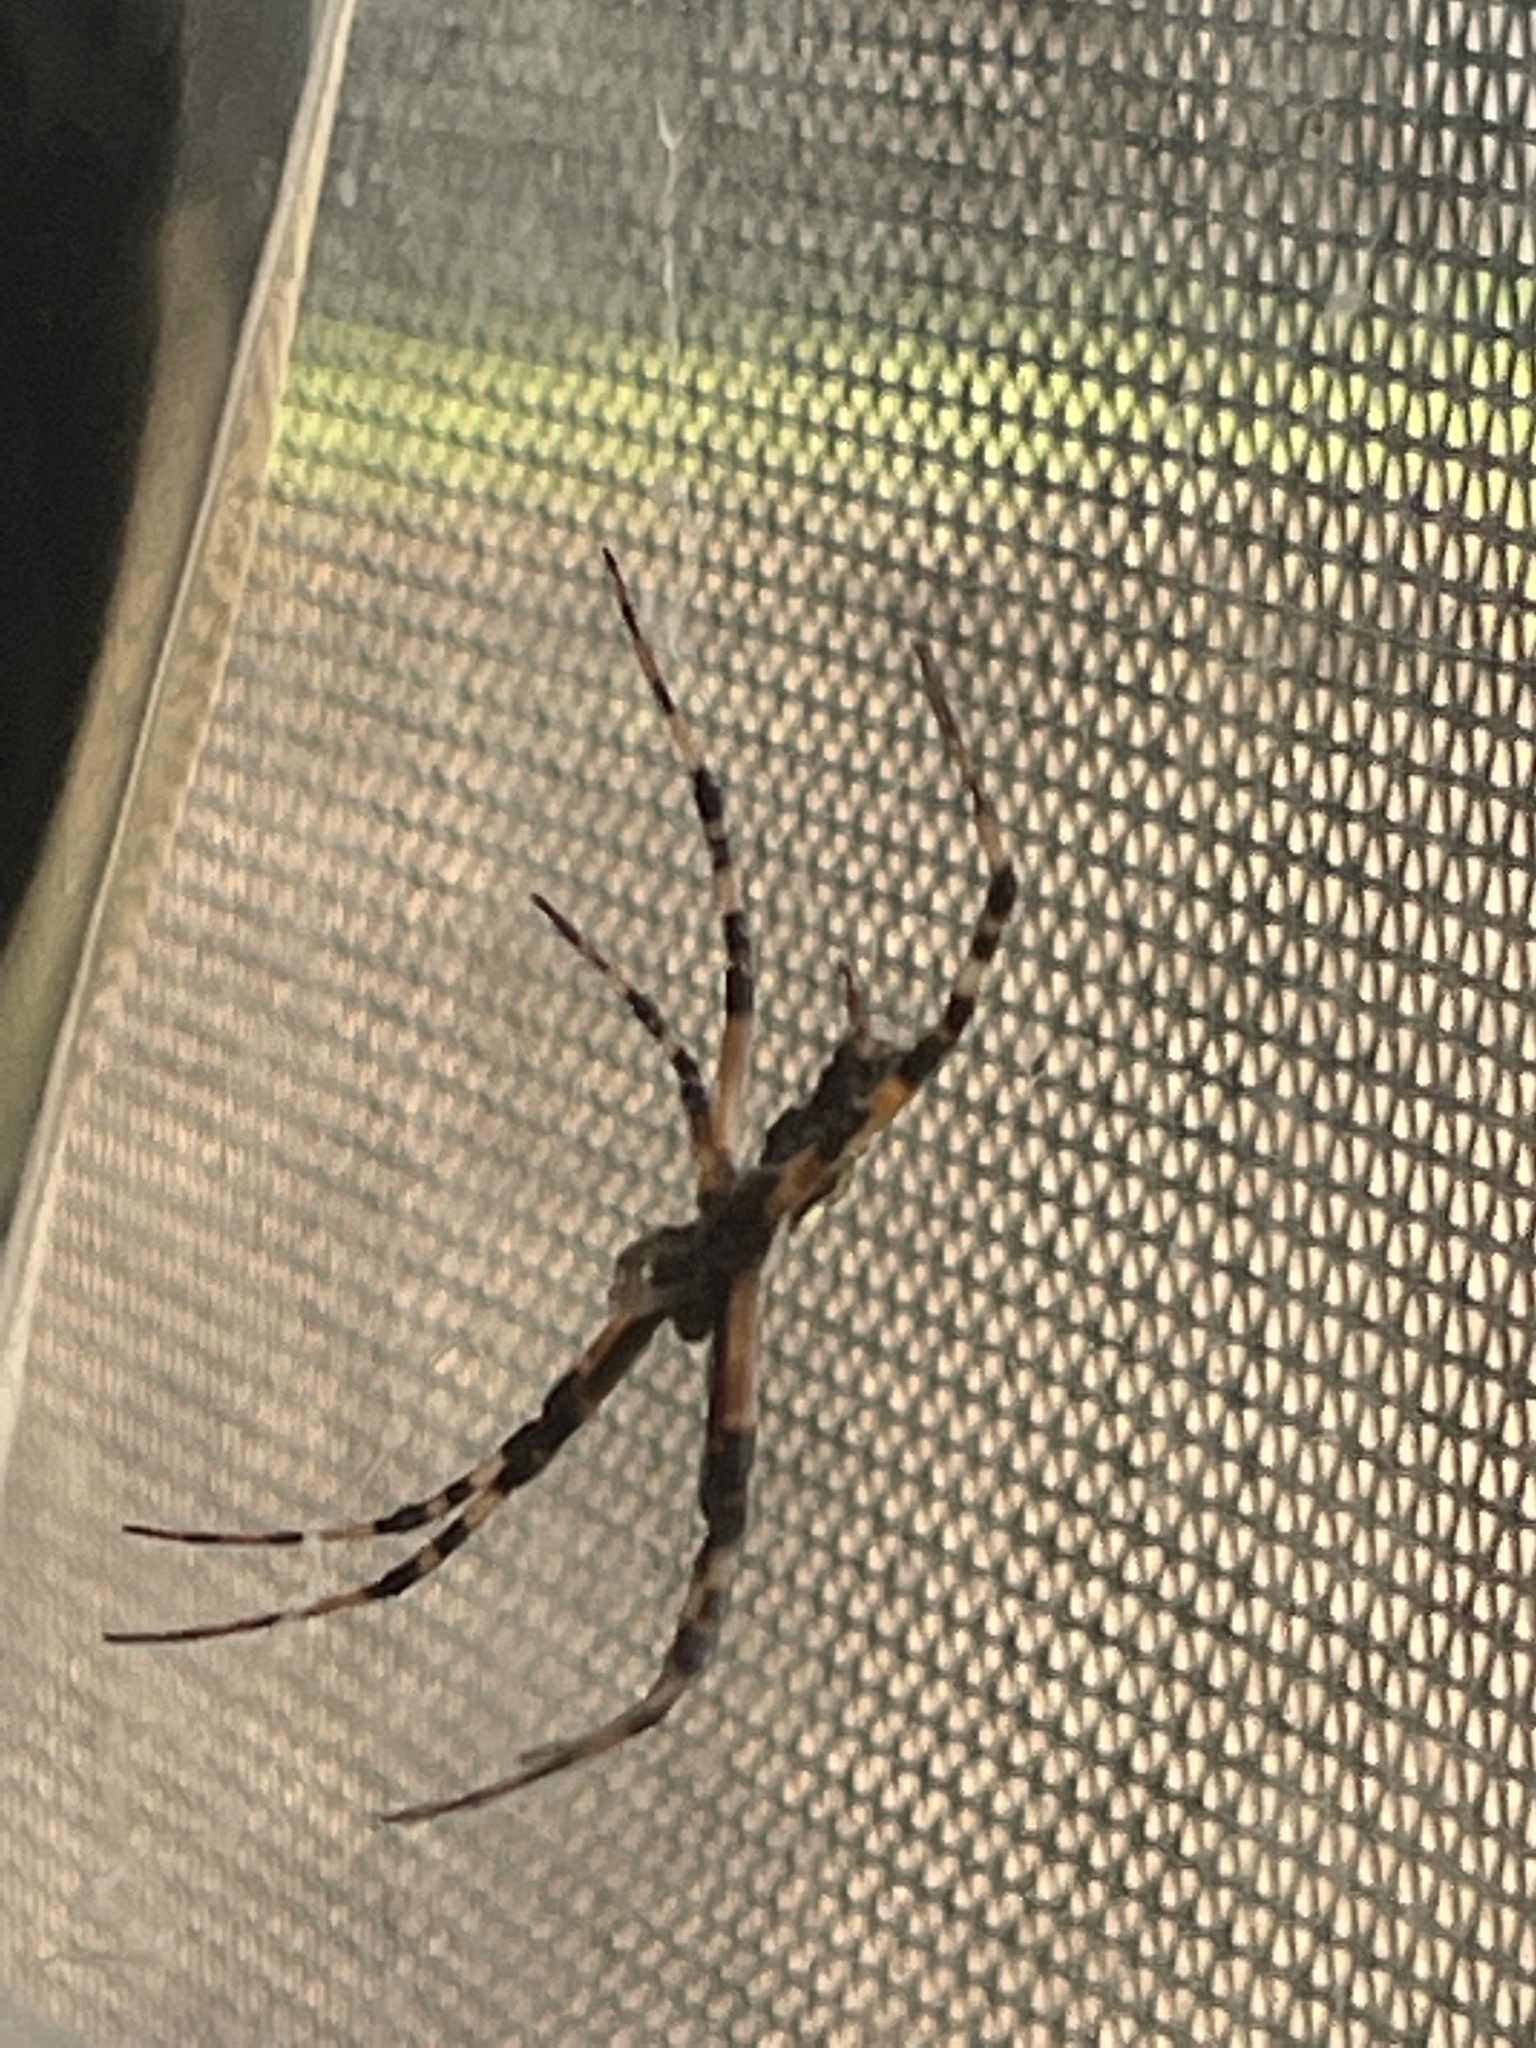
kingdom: Animalia
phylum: Arthropoda
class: Arachnida
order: Araneae
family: Araneidae
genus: Argiope
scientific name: Argiope aurantia
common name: Orb weavers
